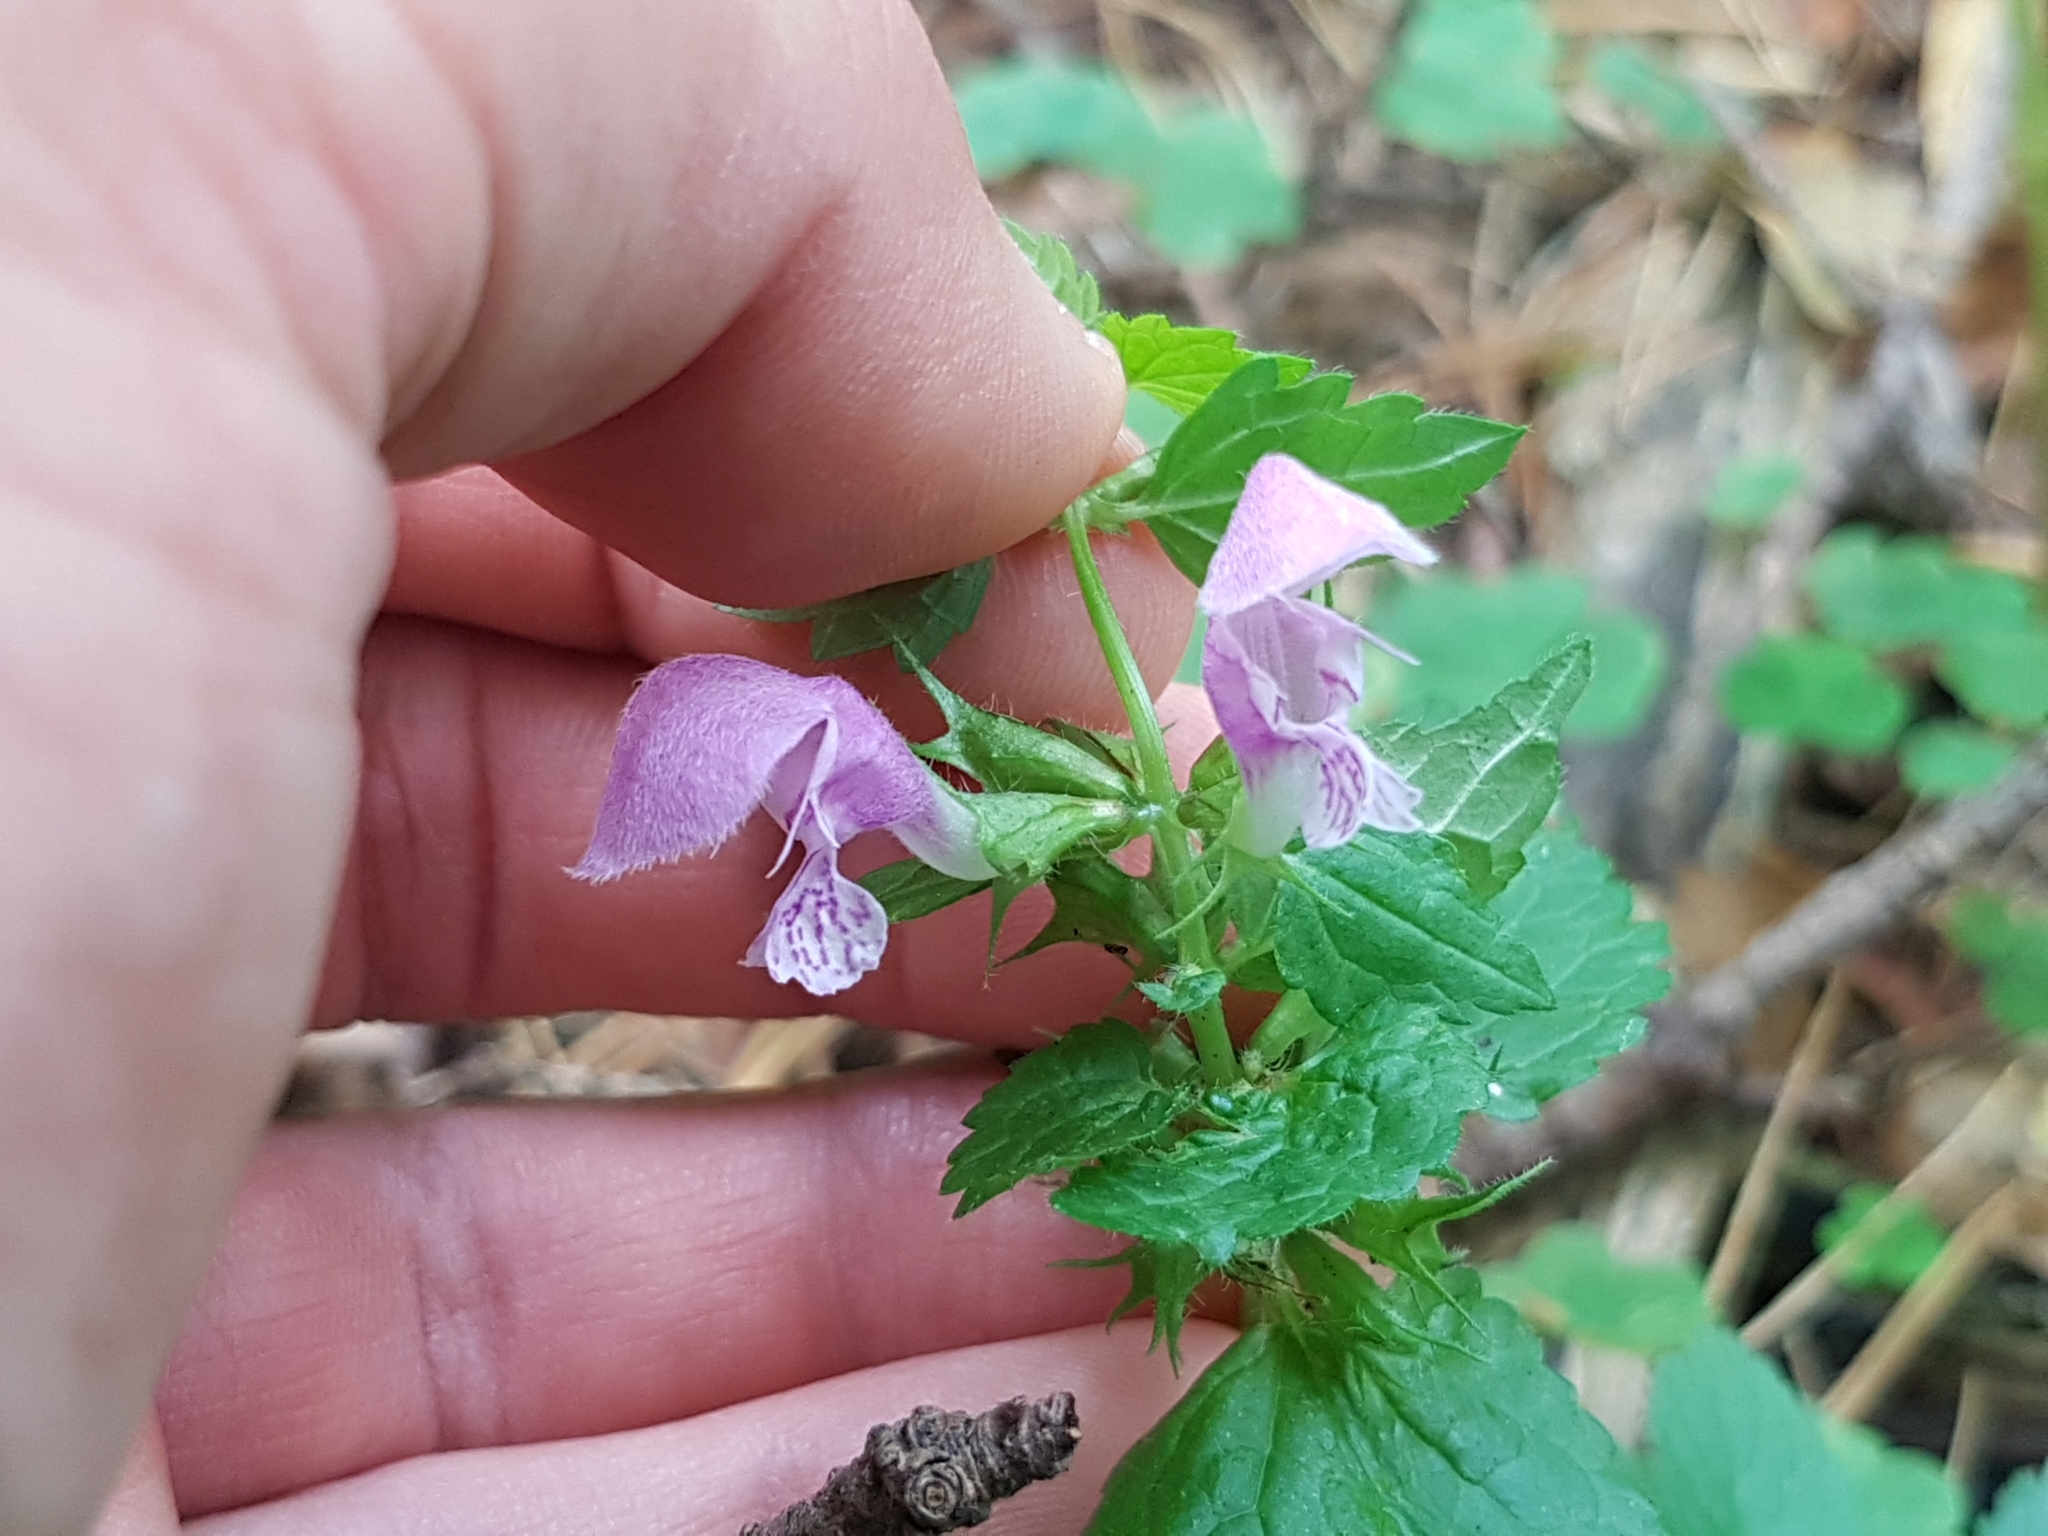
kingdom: Plantae
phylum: Tracheophyta
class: Magnoliopsida
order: Lamiales
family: Lamiaceae
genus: Lamium
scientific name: Lamium maculatum
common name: Spotted dead-nettle
